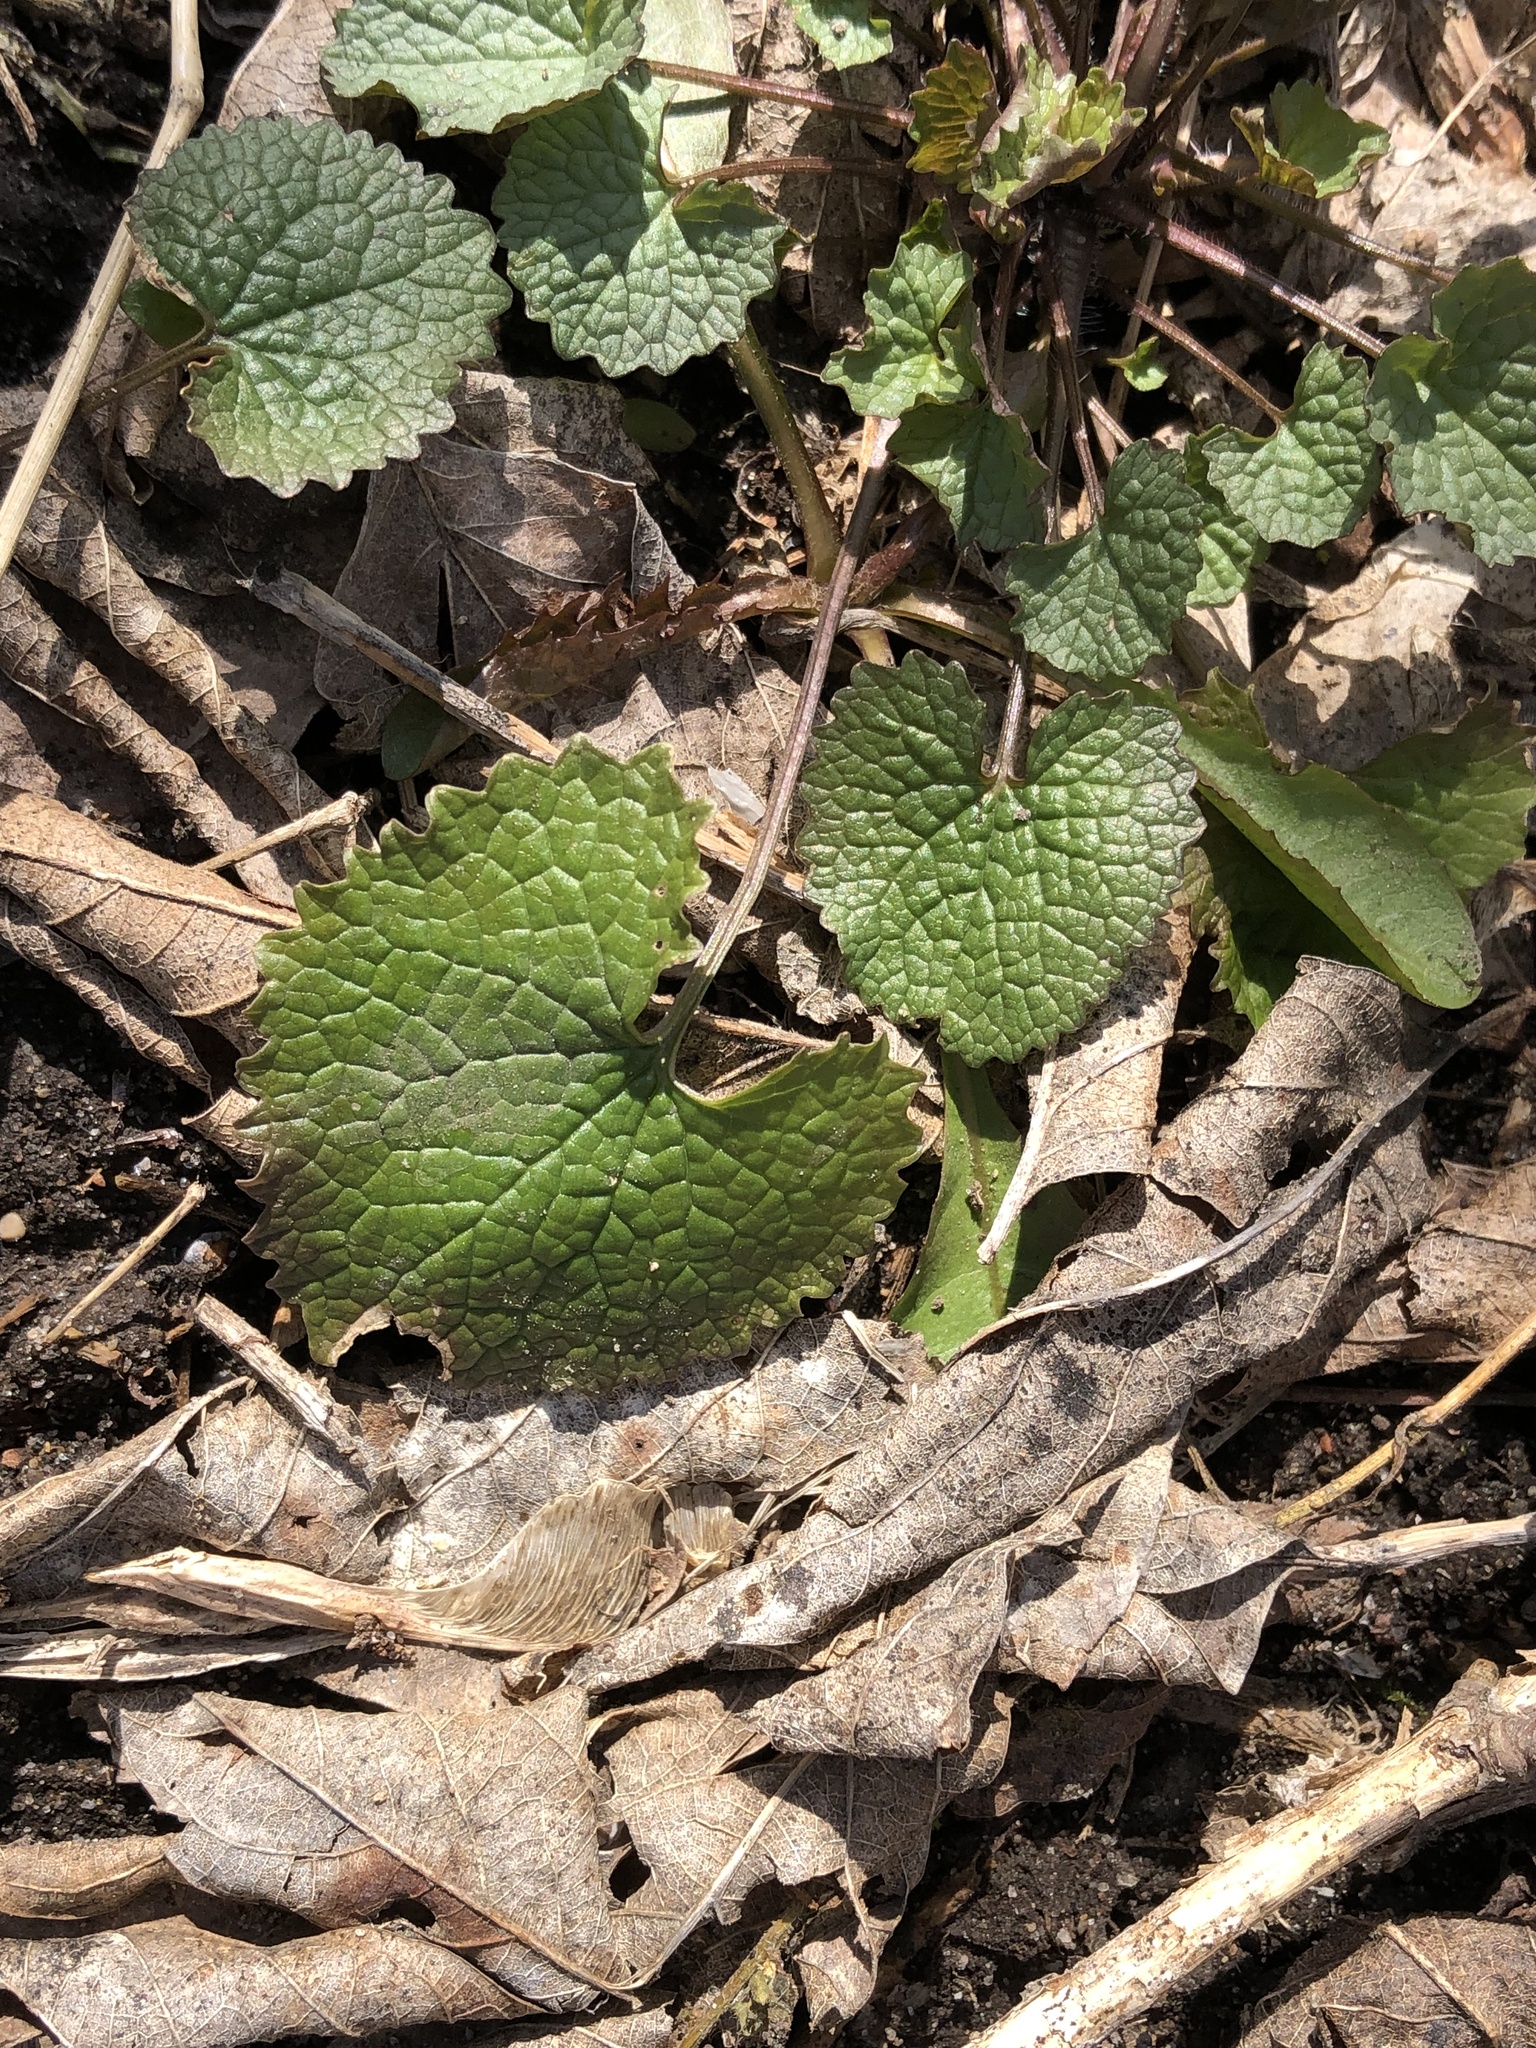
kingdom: Plantae
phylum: Tracheophyta
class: Magnoliopsida
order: Brassicales
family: Brassicaceae
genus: Alliaria
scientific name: Alliaria petiolata
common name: Garlic mustard
